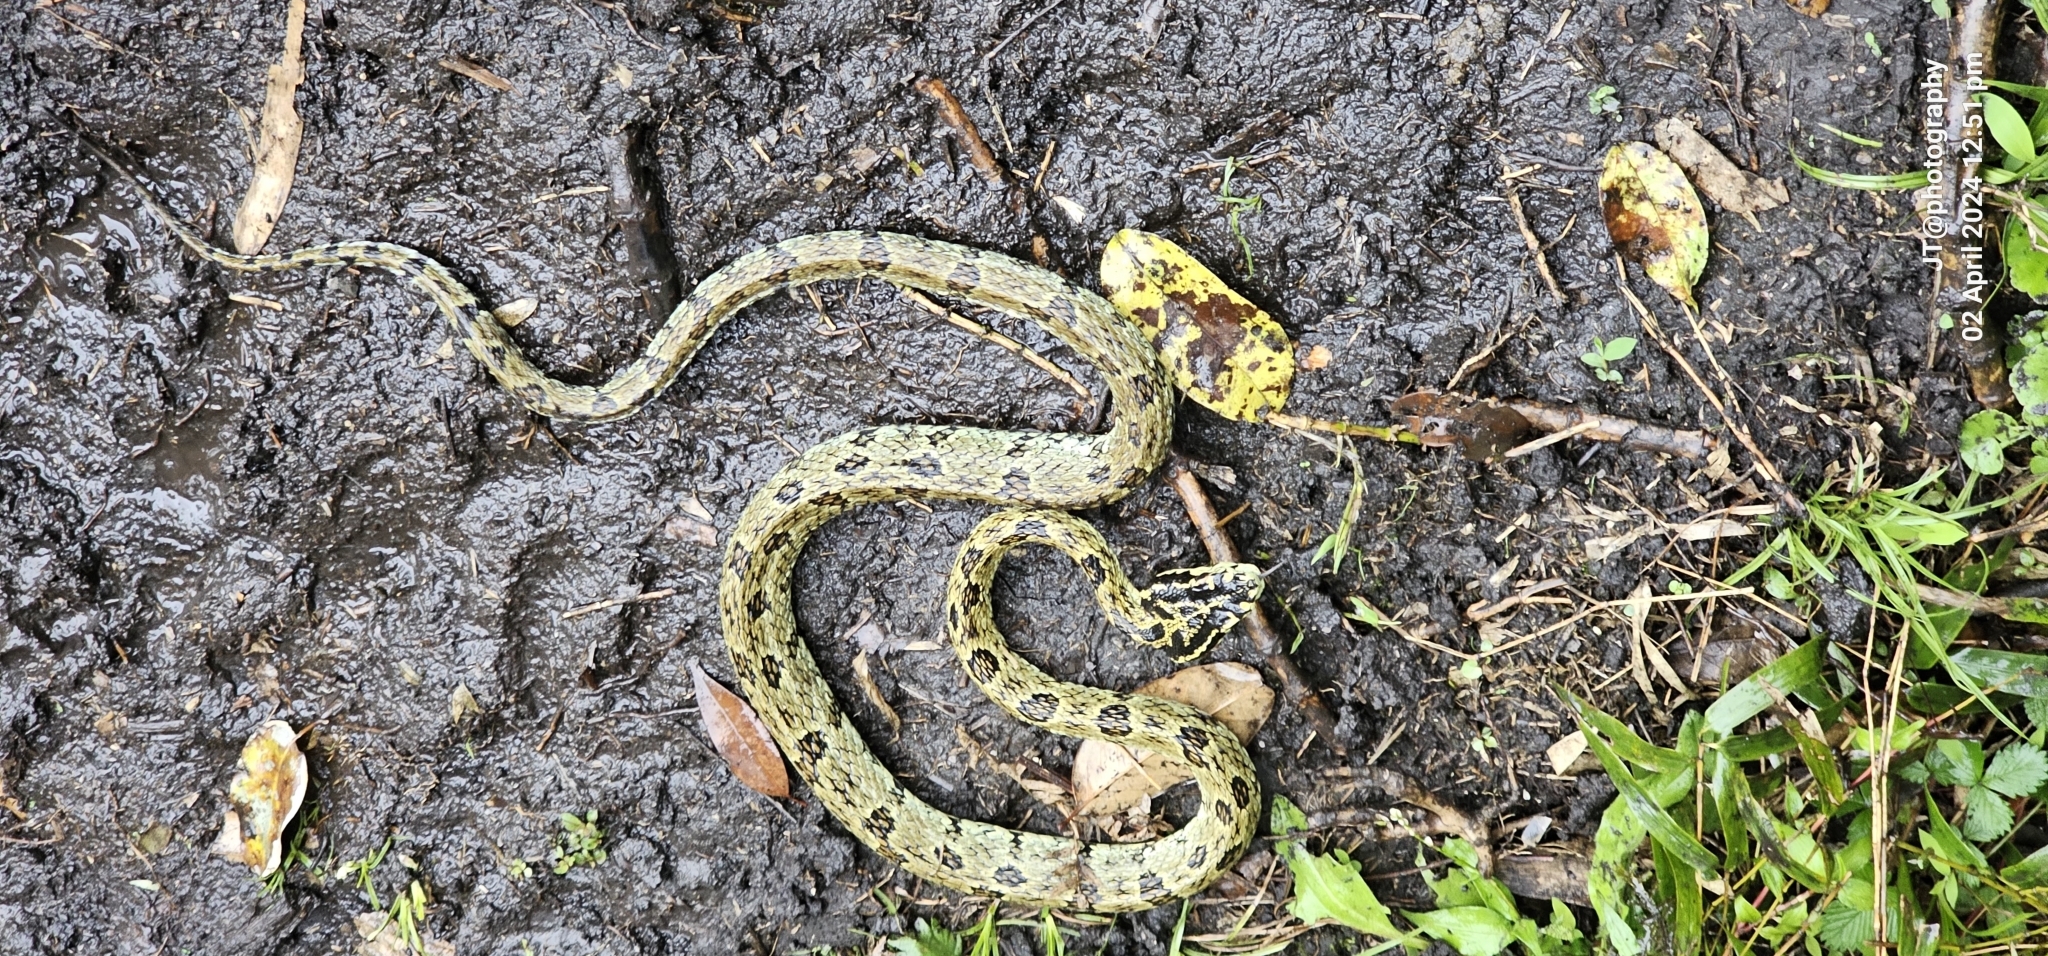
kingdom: Animalia
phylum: Chordata
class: Squamata
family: Viperidae
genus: Protobothrops
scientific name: Protobothrops jerdonii
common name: Jerdon's pitviper
